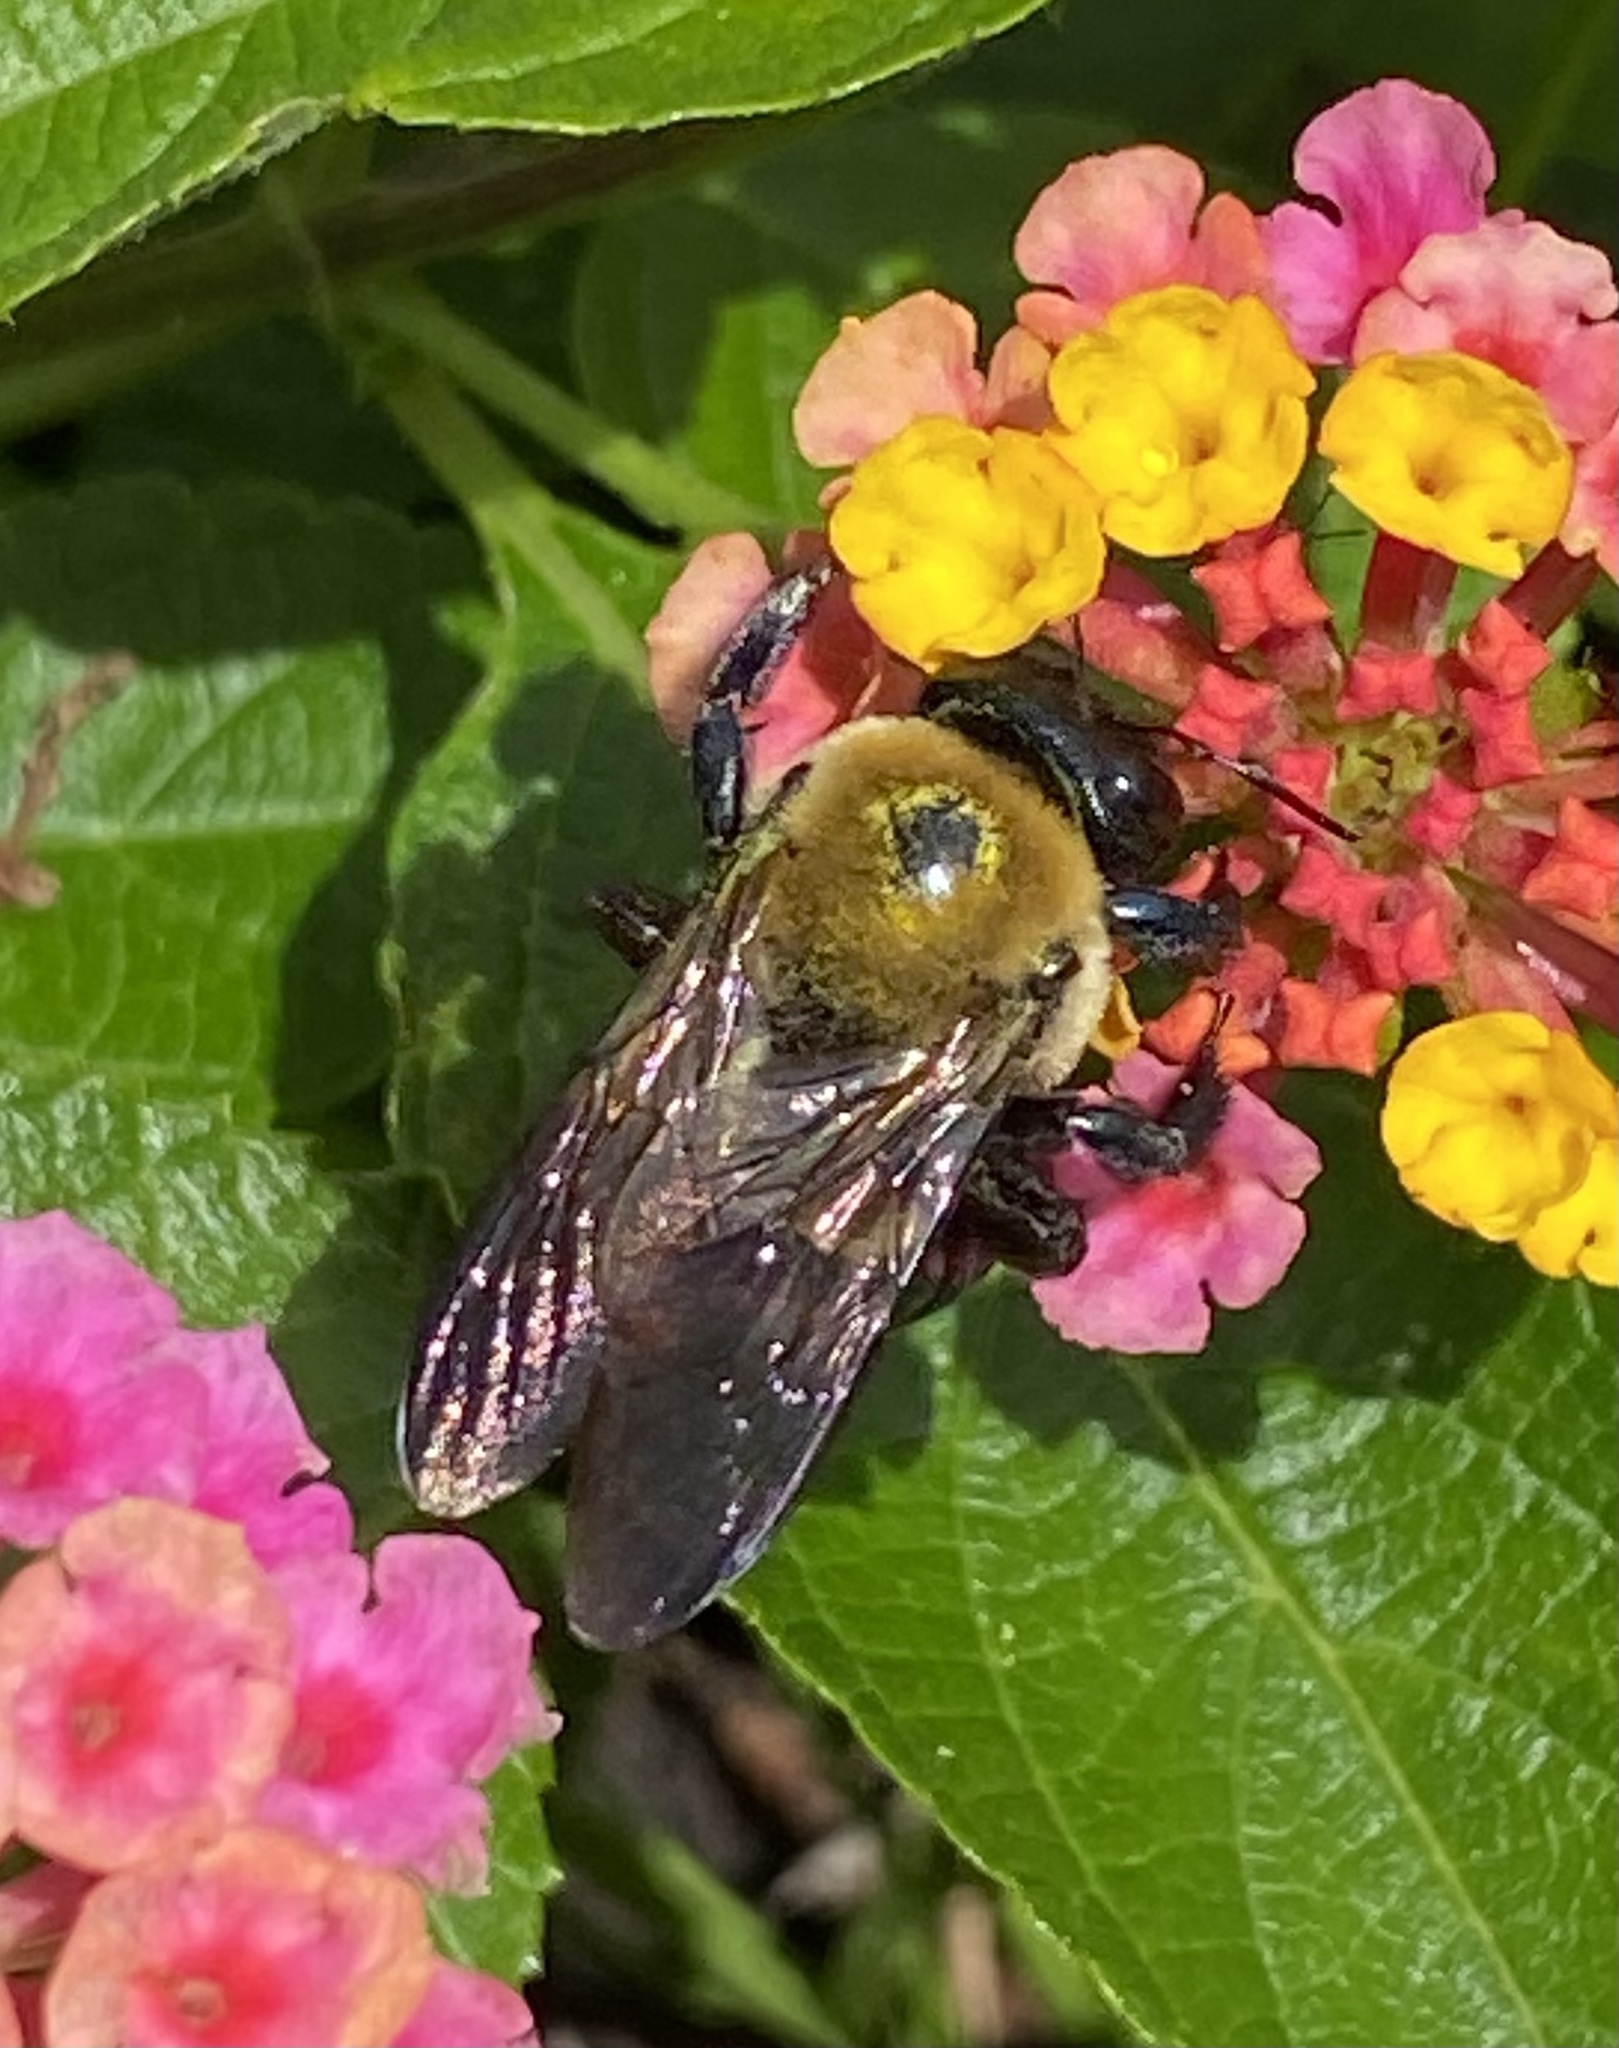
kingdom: Animalia
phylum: Arthropoda
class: Insecta
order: Hymenoptera
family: Apidae
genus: Xylocopa
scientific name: Xylocopa virginica
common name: Carpenter bee
